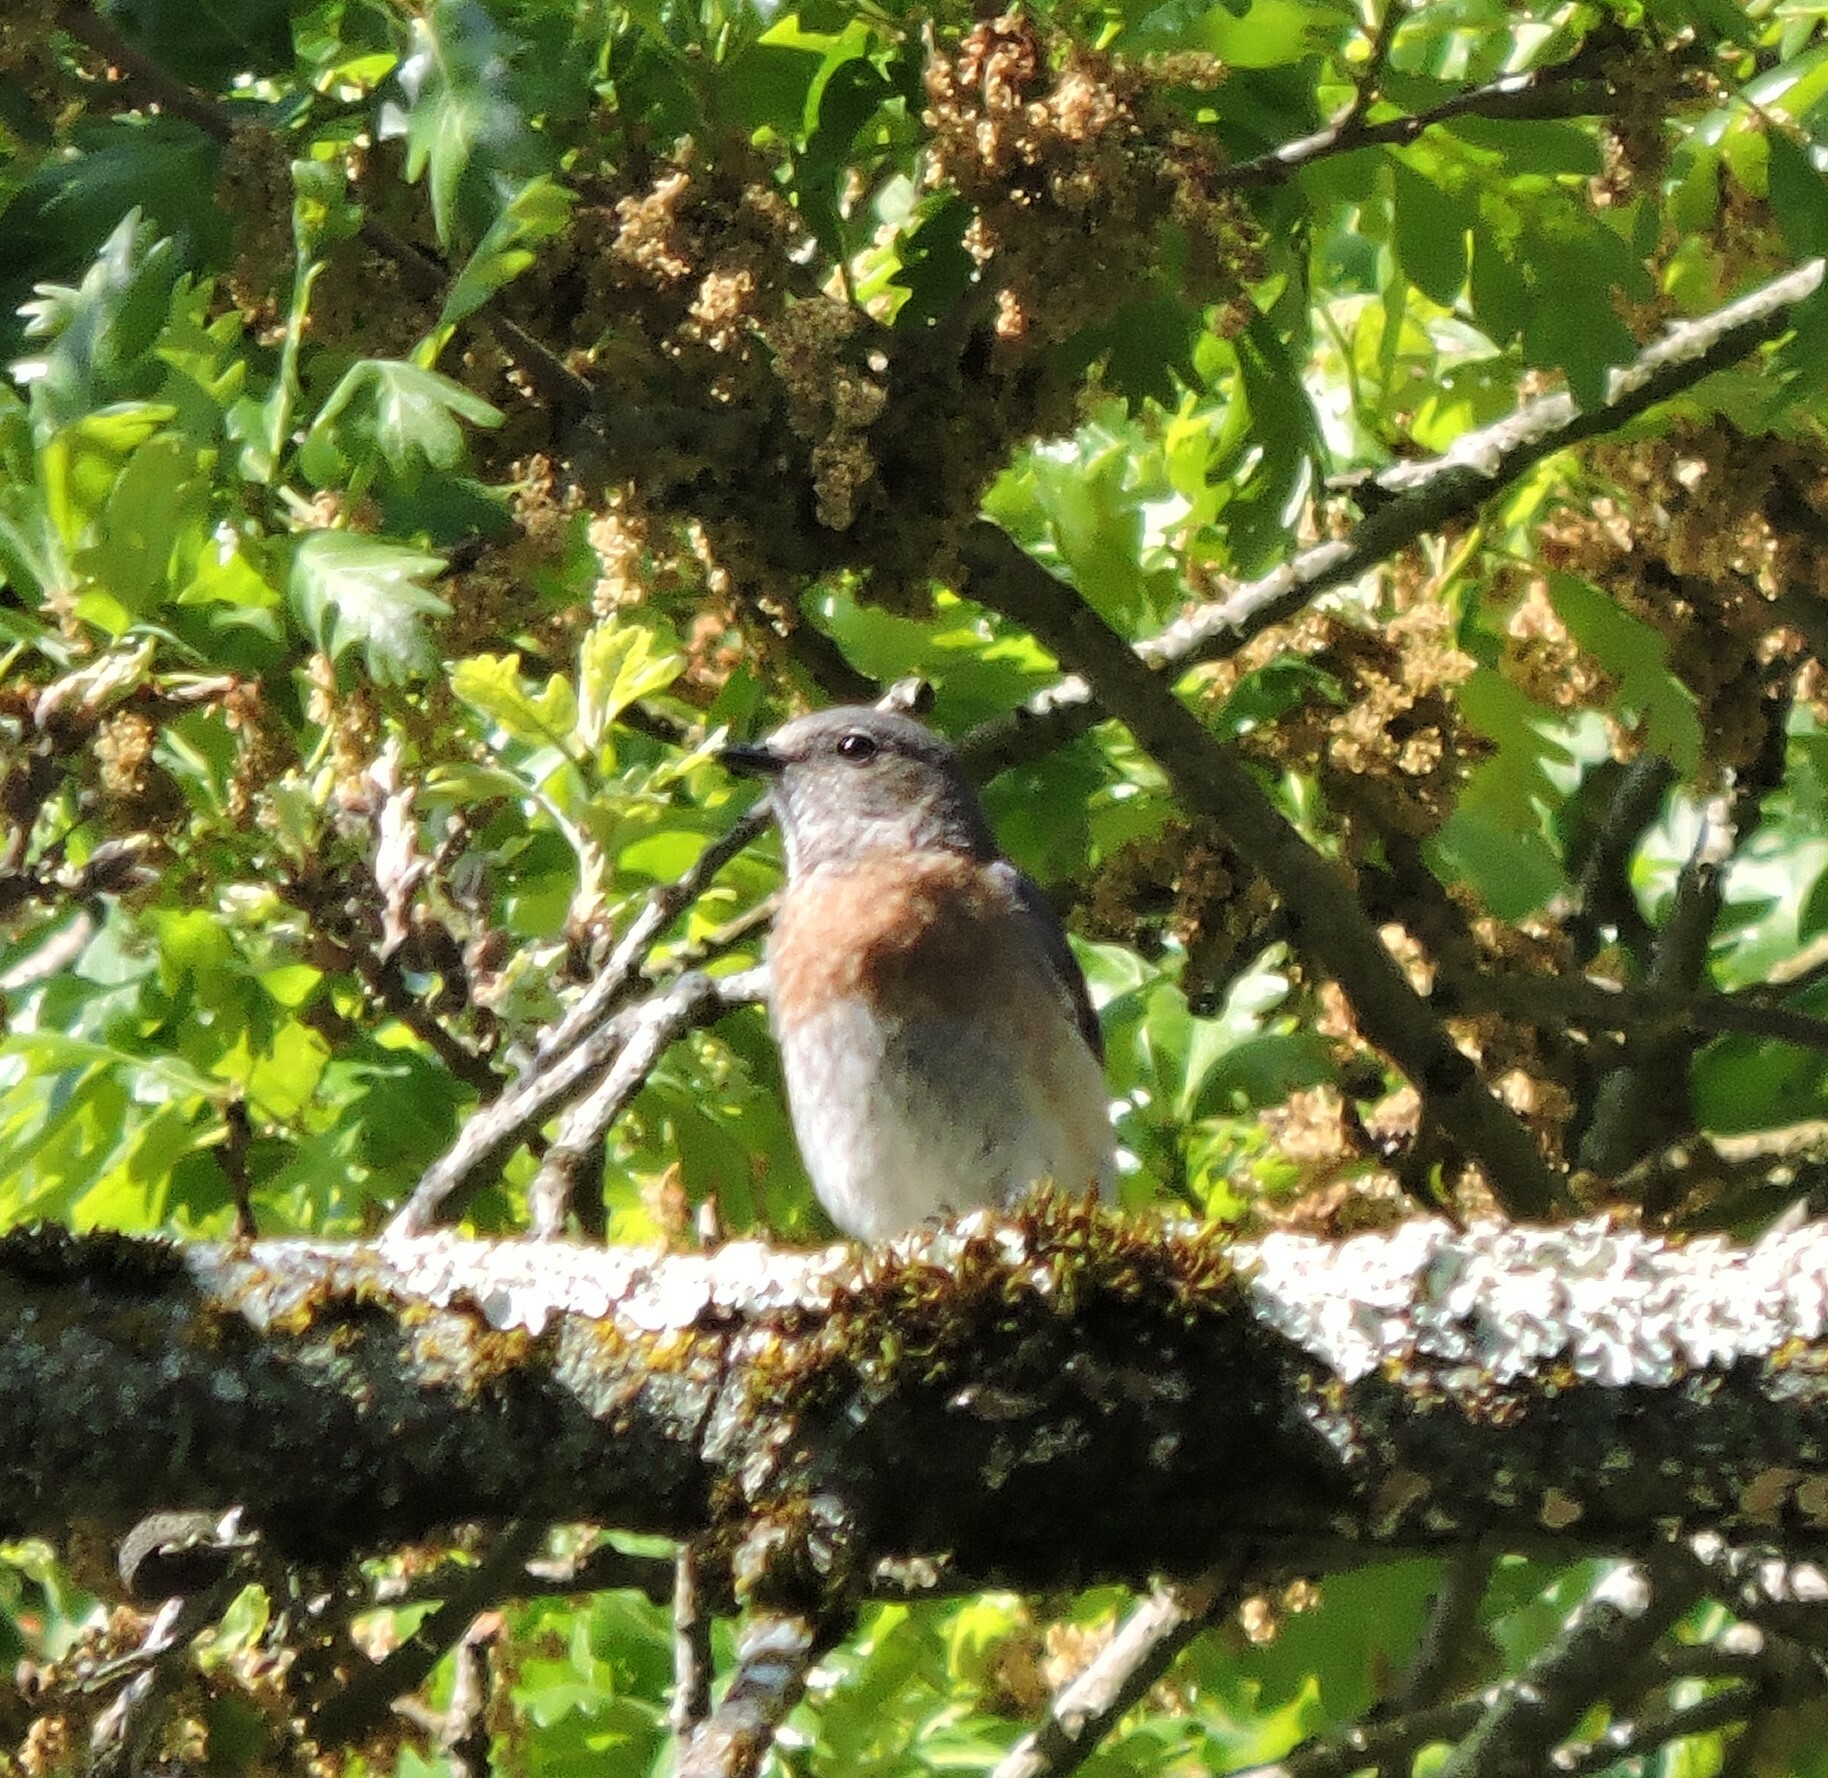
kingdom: Animalia
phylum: Chordata
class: Aves
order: Passeriformes
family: Turdidae
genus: Sialia
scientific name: Sialia mexicana
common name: Western bluebird
